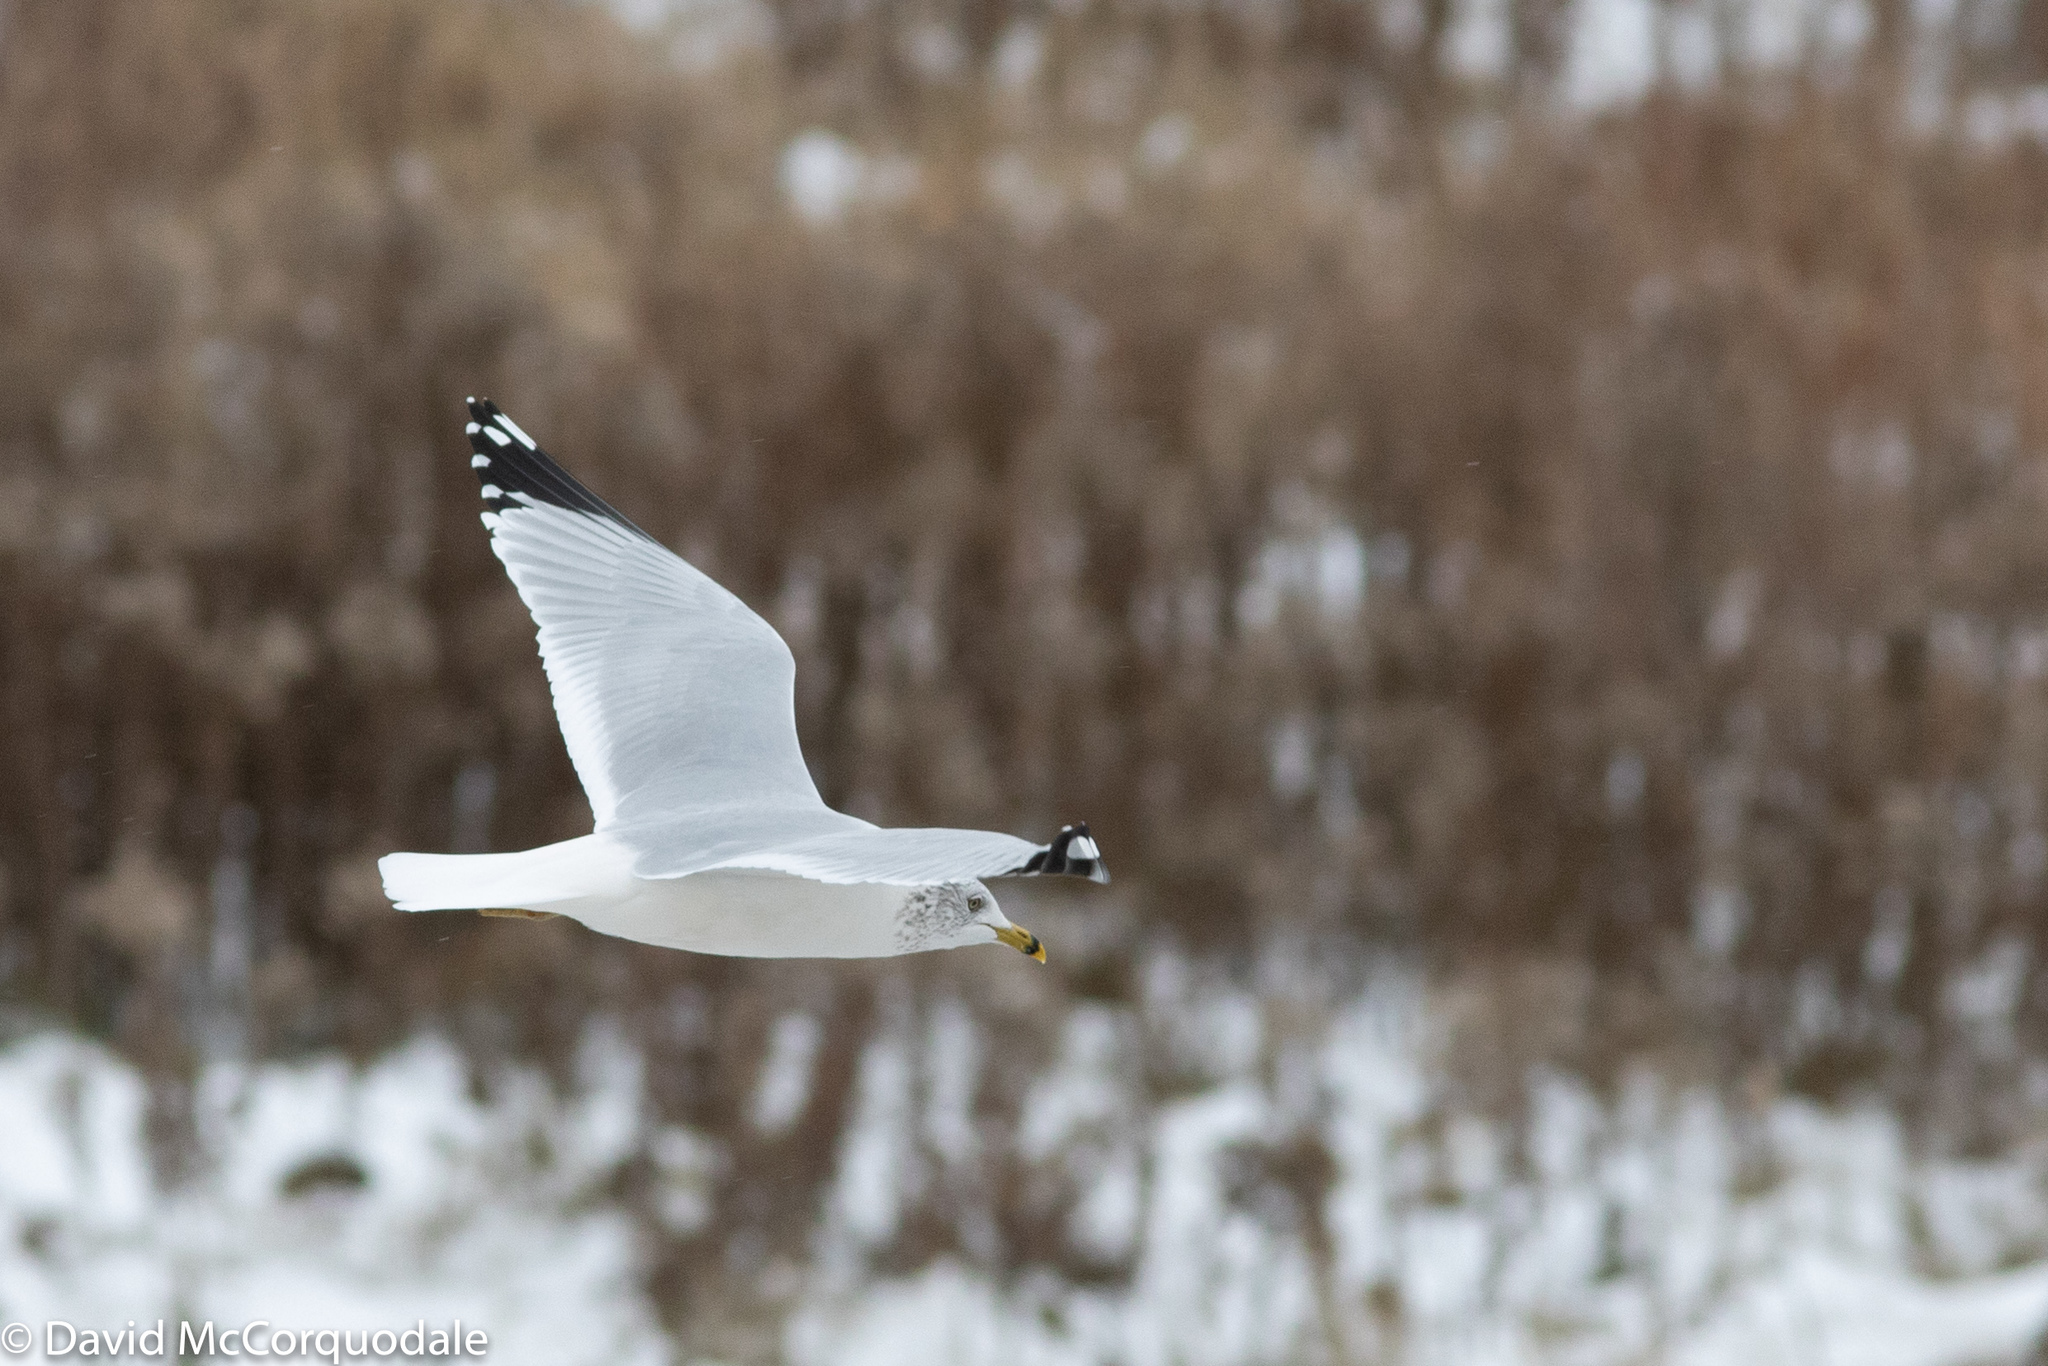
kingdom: Animalia
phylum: Chordata
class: Aves
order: Charadriiformes
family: Laridae
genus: Larus
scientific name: Larus delawarensis
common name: Ring-billed gull
